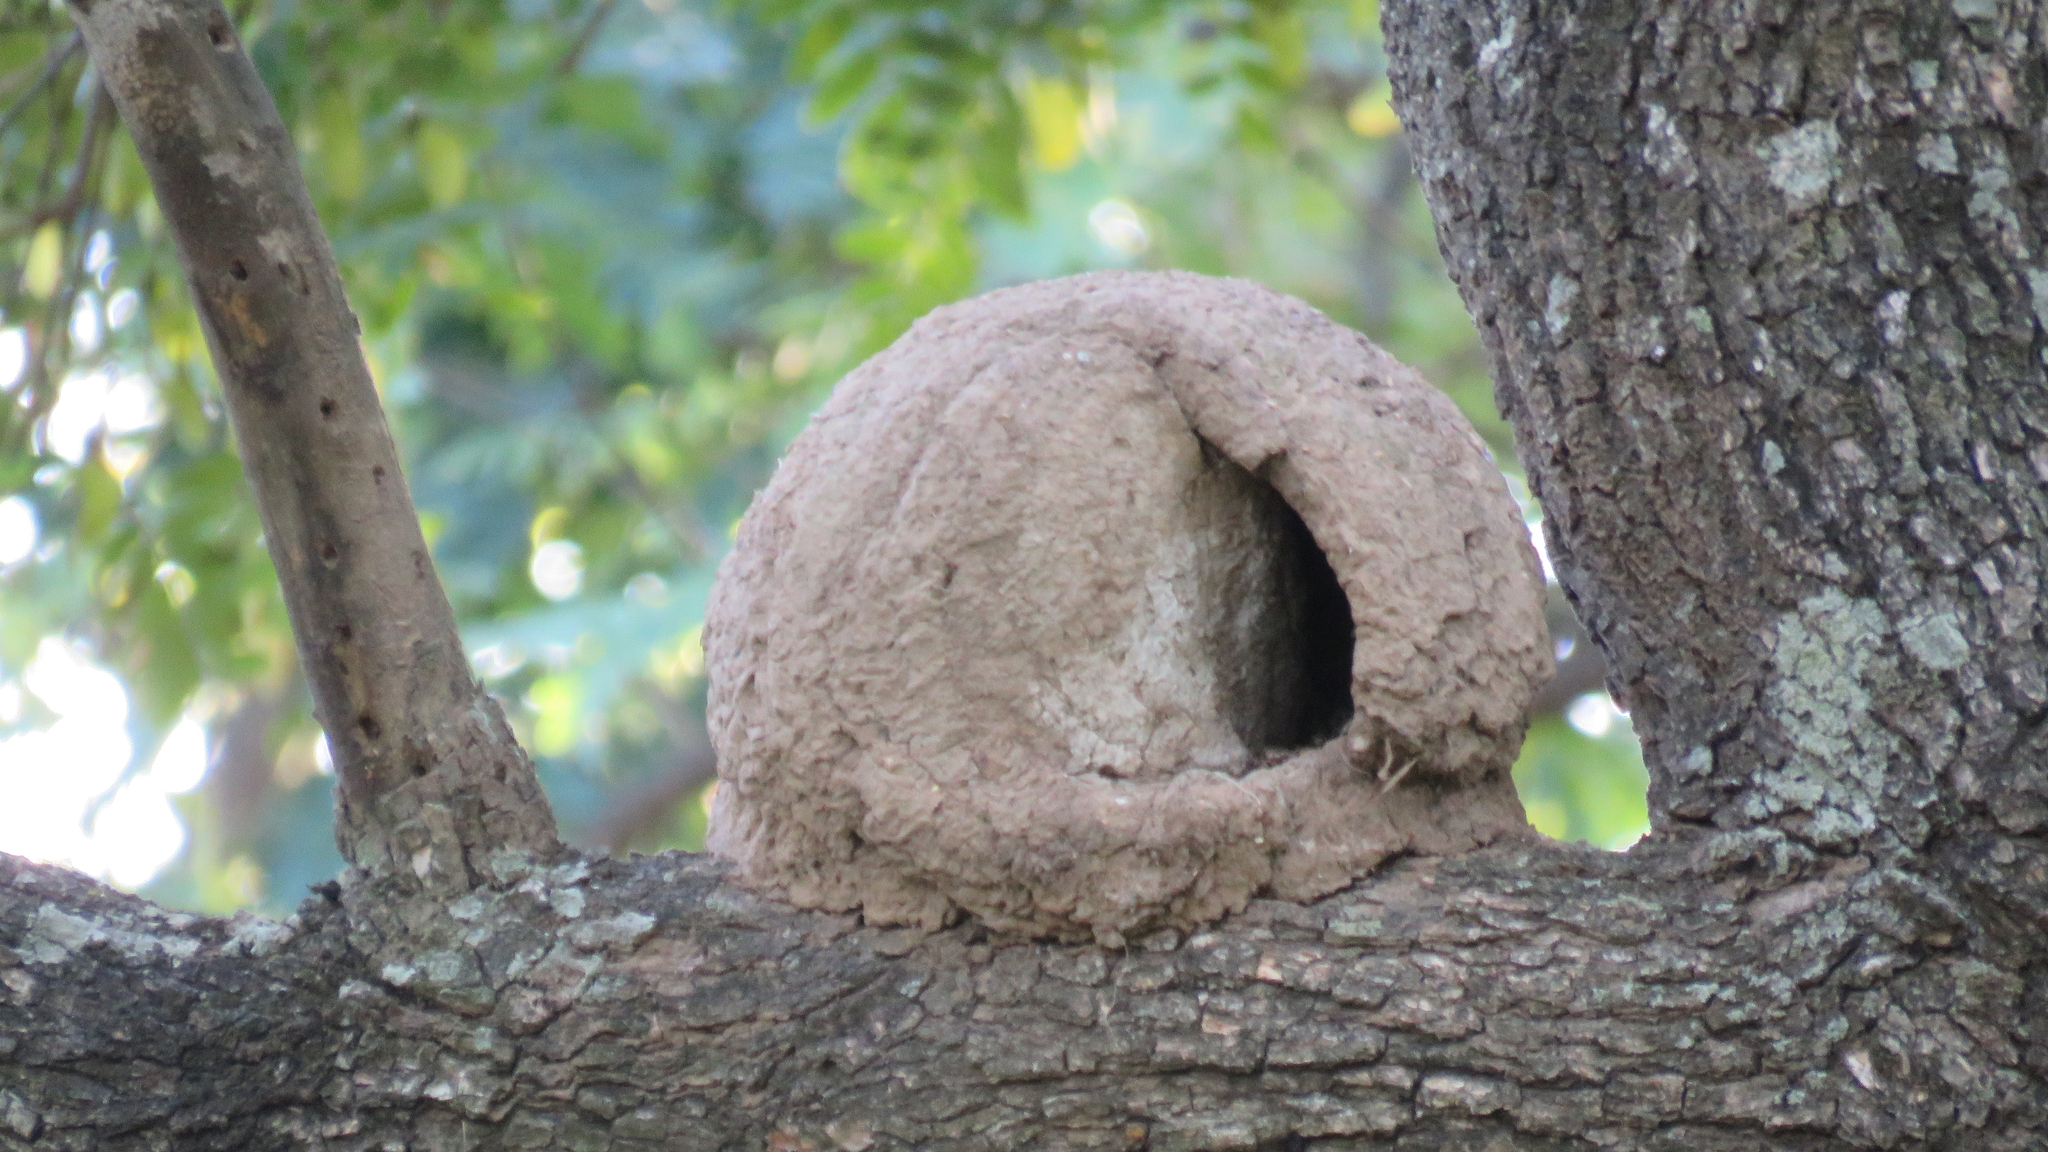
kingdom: Animalia
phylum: Chordata
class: Aves
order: Passeriformes
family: Furnariidae
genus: Furnarius
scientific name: Furnarius rufus
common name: Rufous hornero
